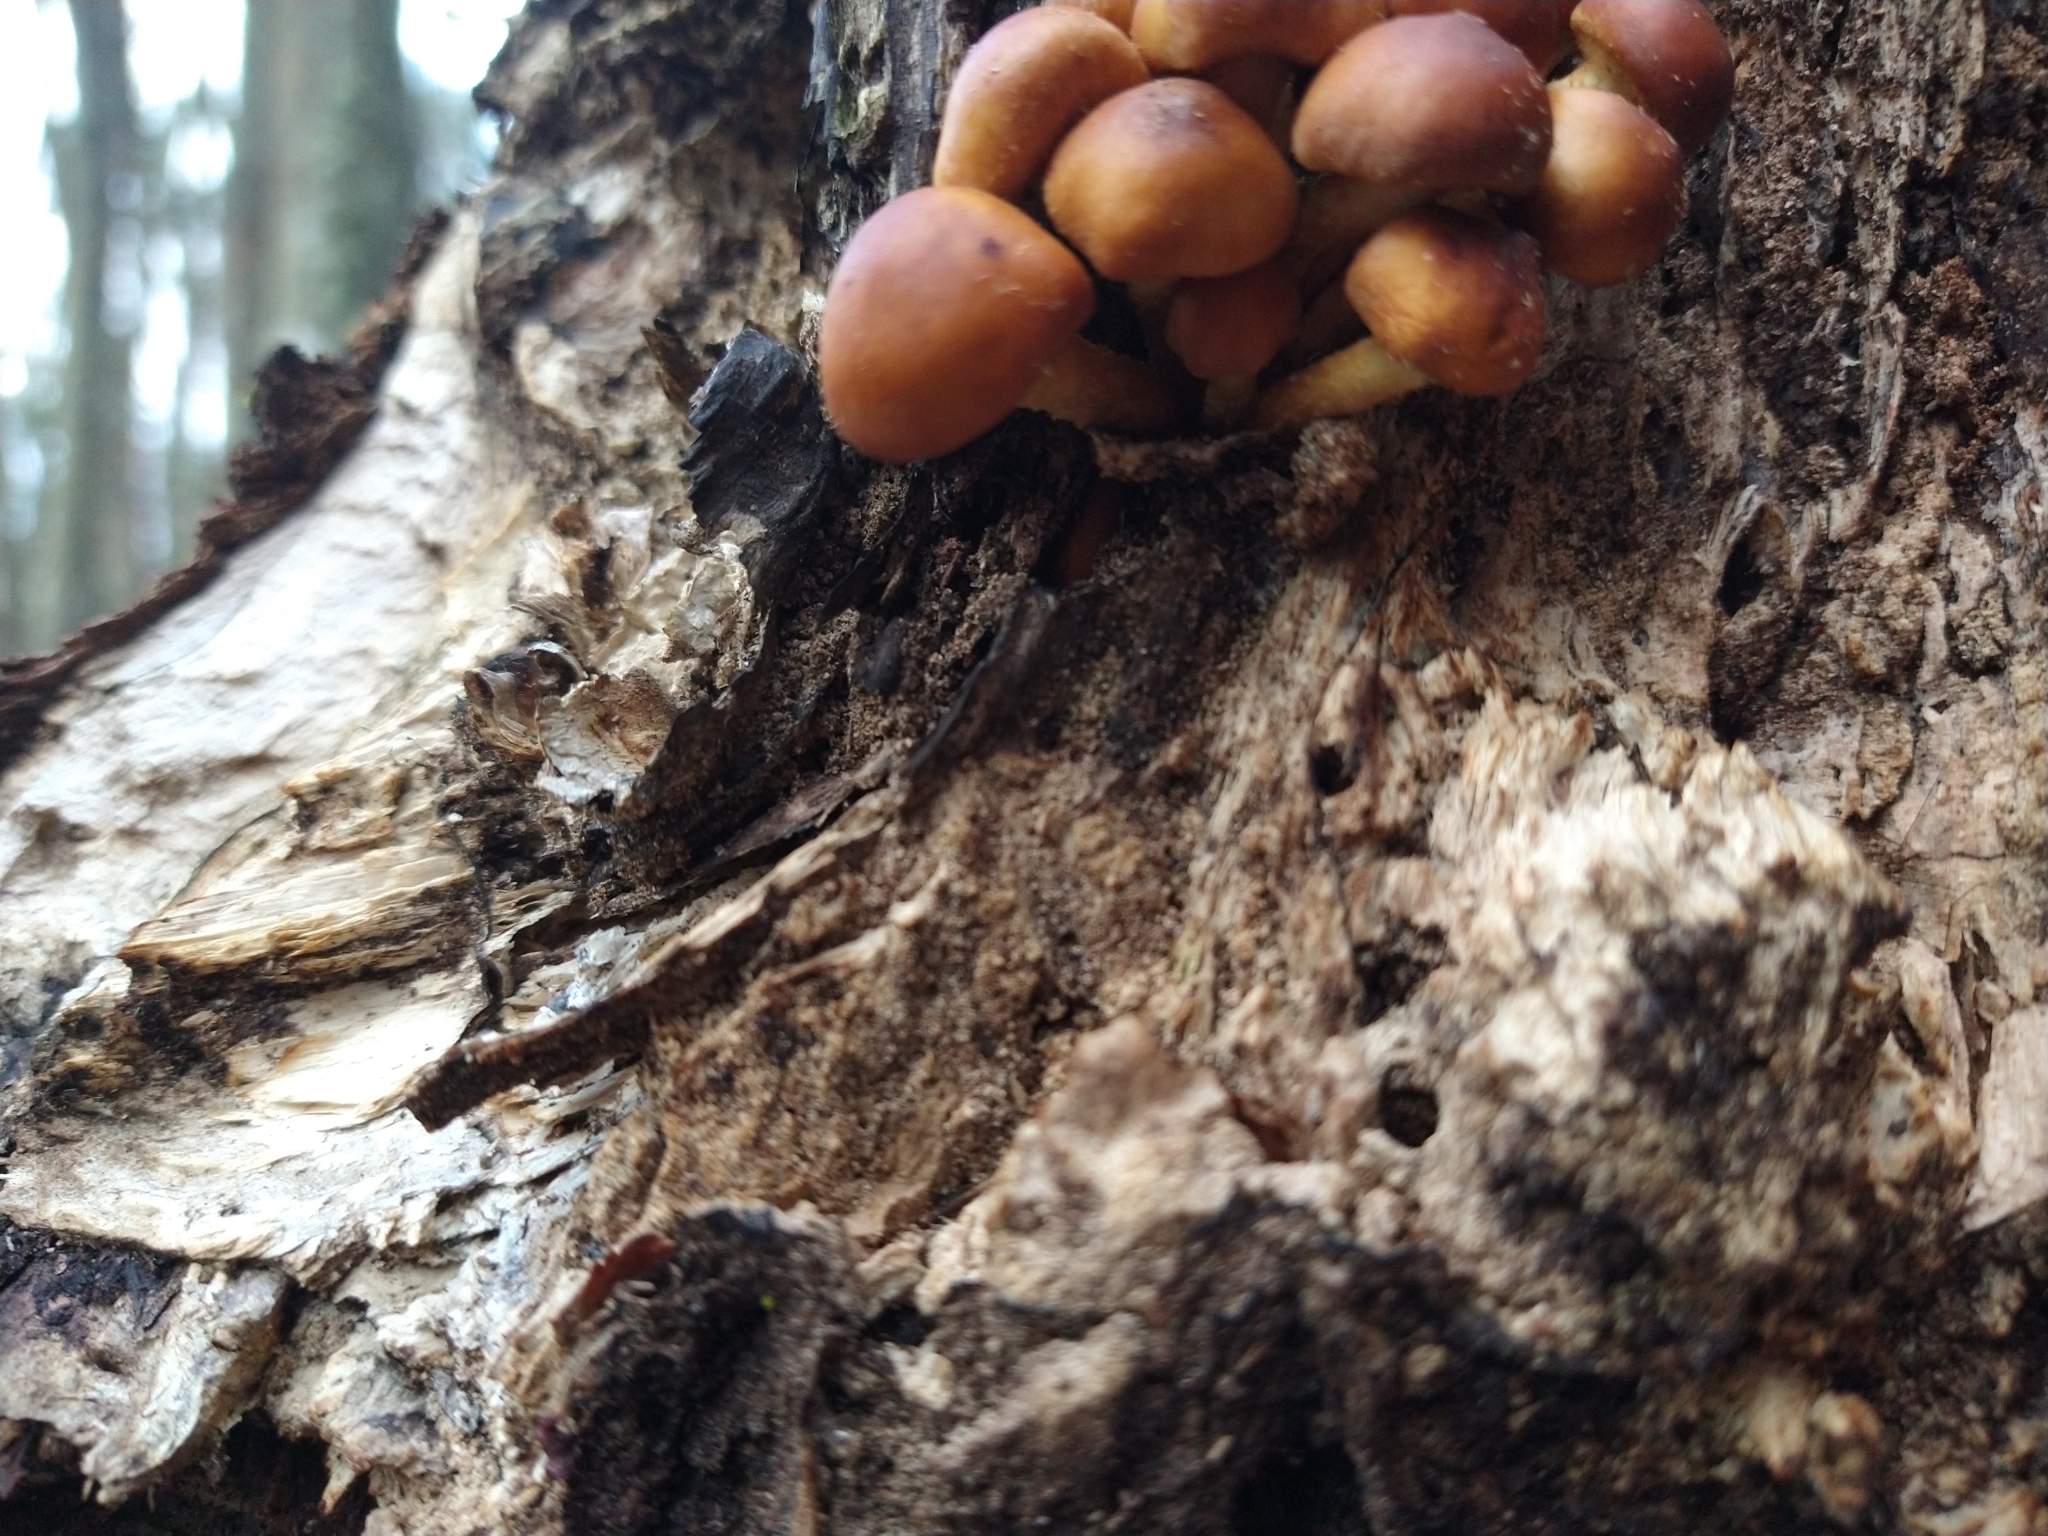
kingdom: Fungi
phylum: Basidiomycota
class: Agaricomycetes
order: Agaricales
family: Strophariaceae
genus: Hypholoma
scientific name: Hypholoma frowardii
